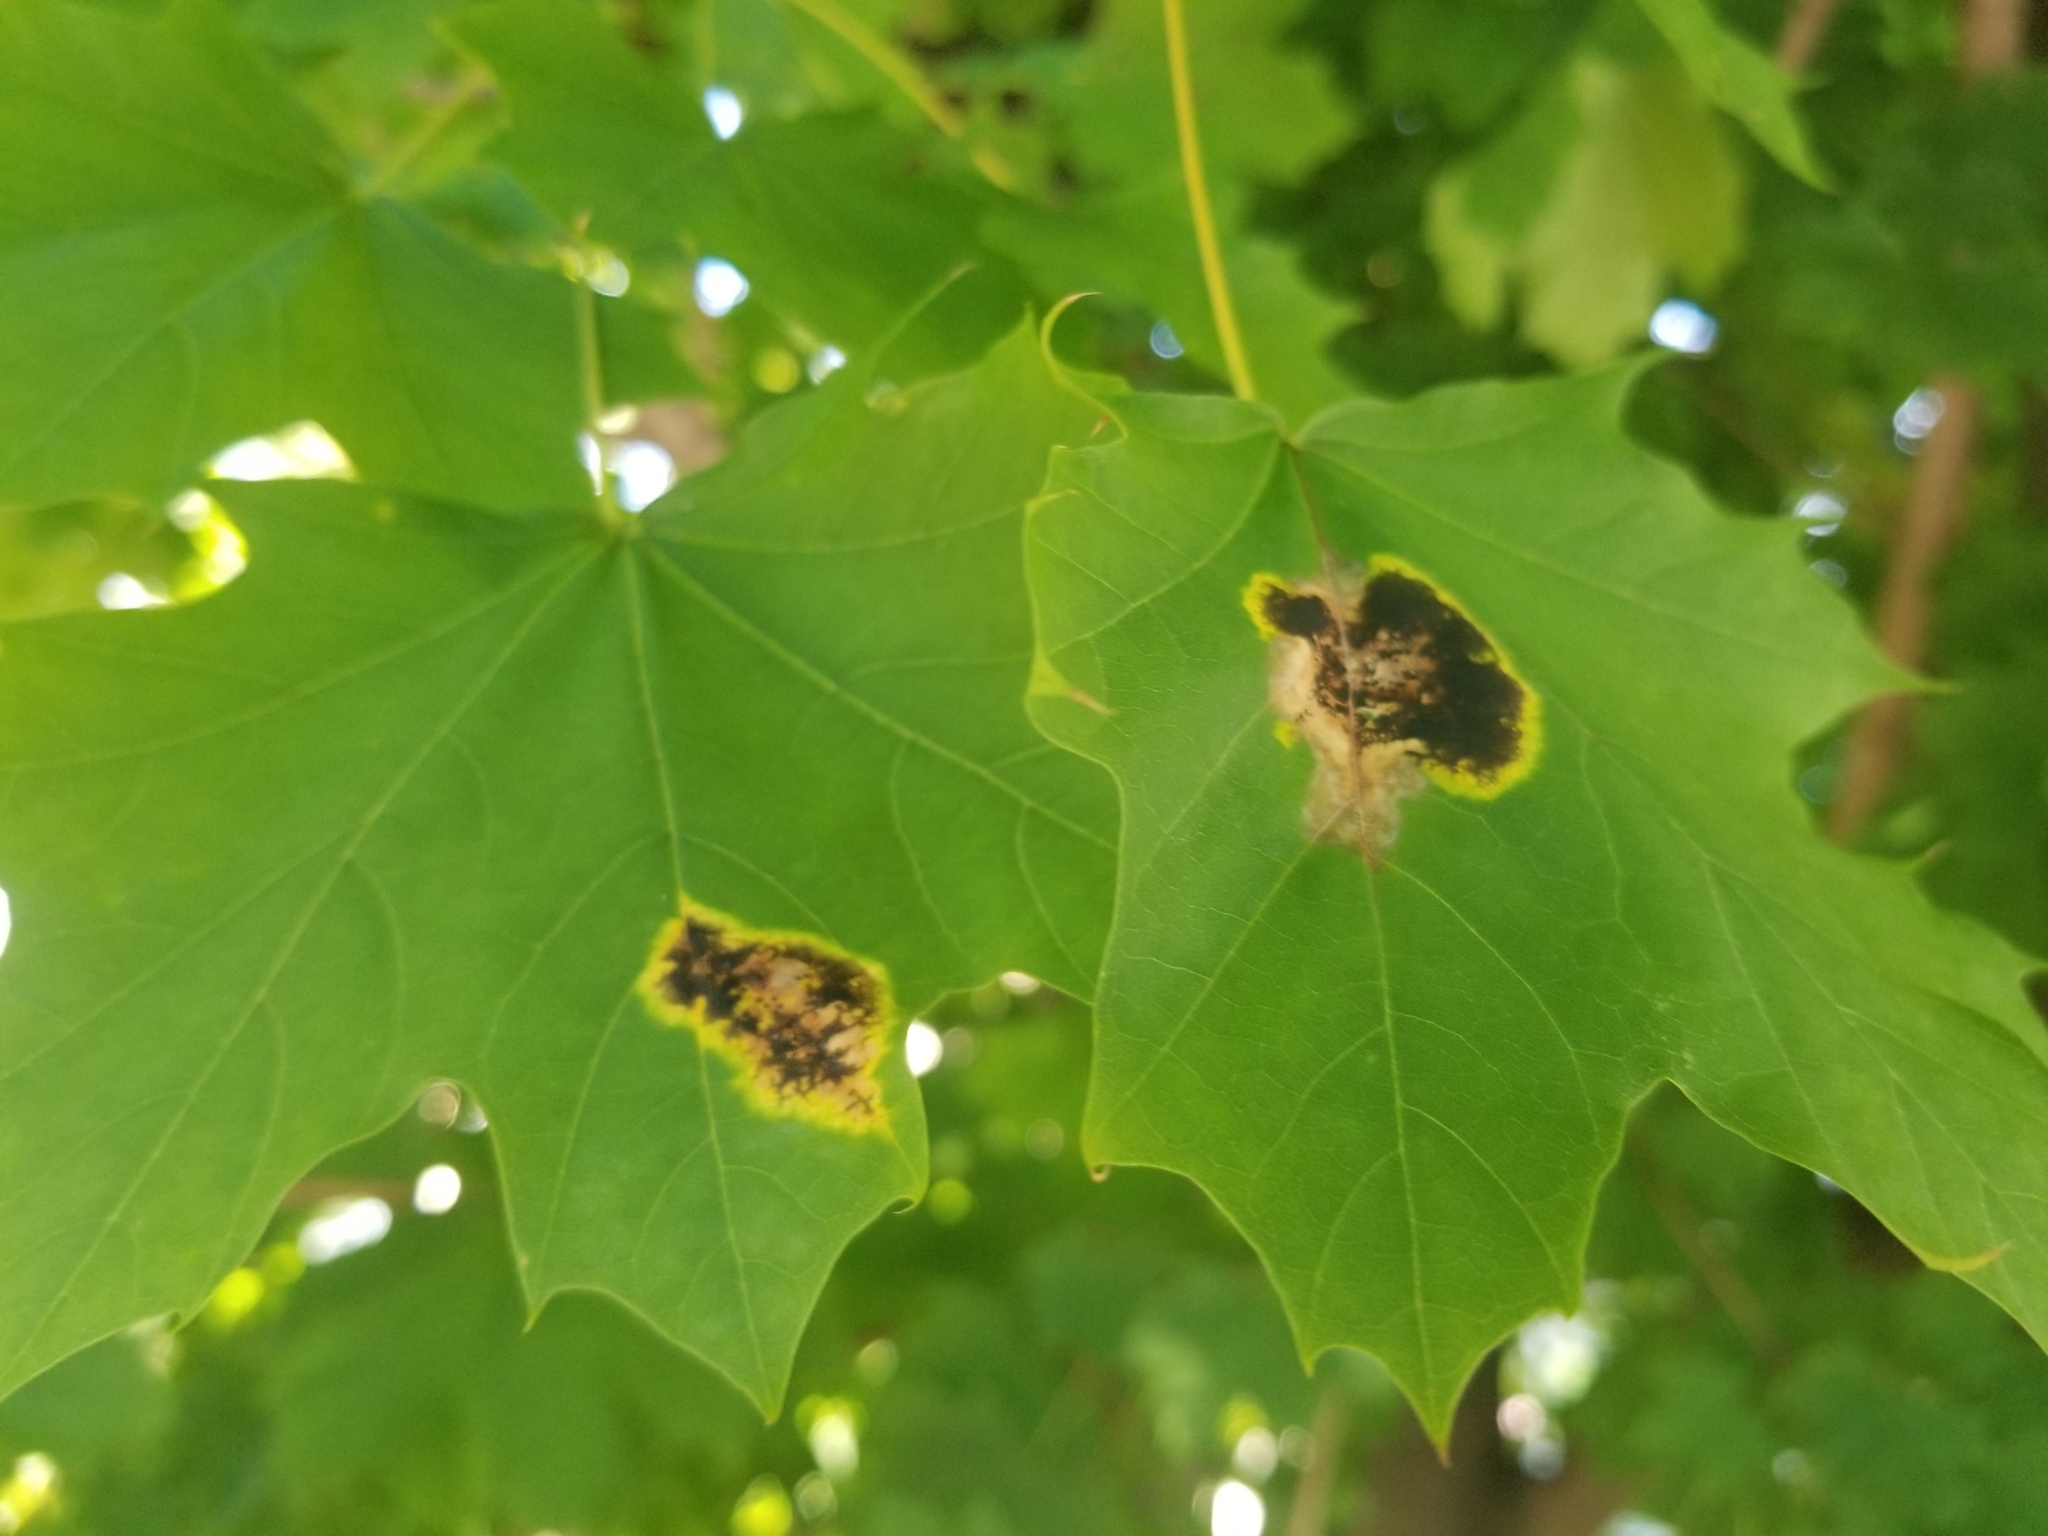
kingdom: Fungi
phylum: Ascomycota
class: Leotiomycetes
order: Rhytismatales
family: Rhytismataceae
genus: Rhytisma
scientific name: Rhytisma acerinum
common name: European tar spot
